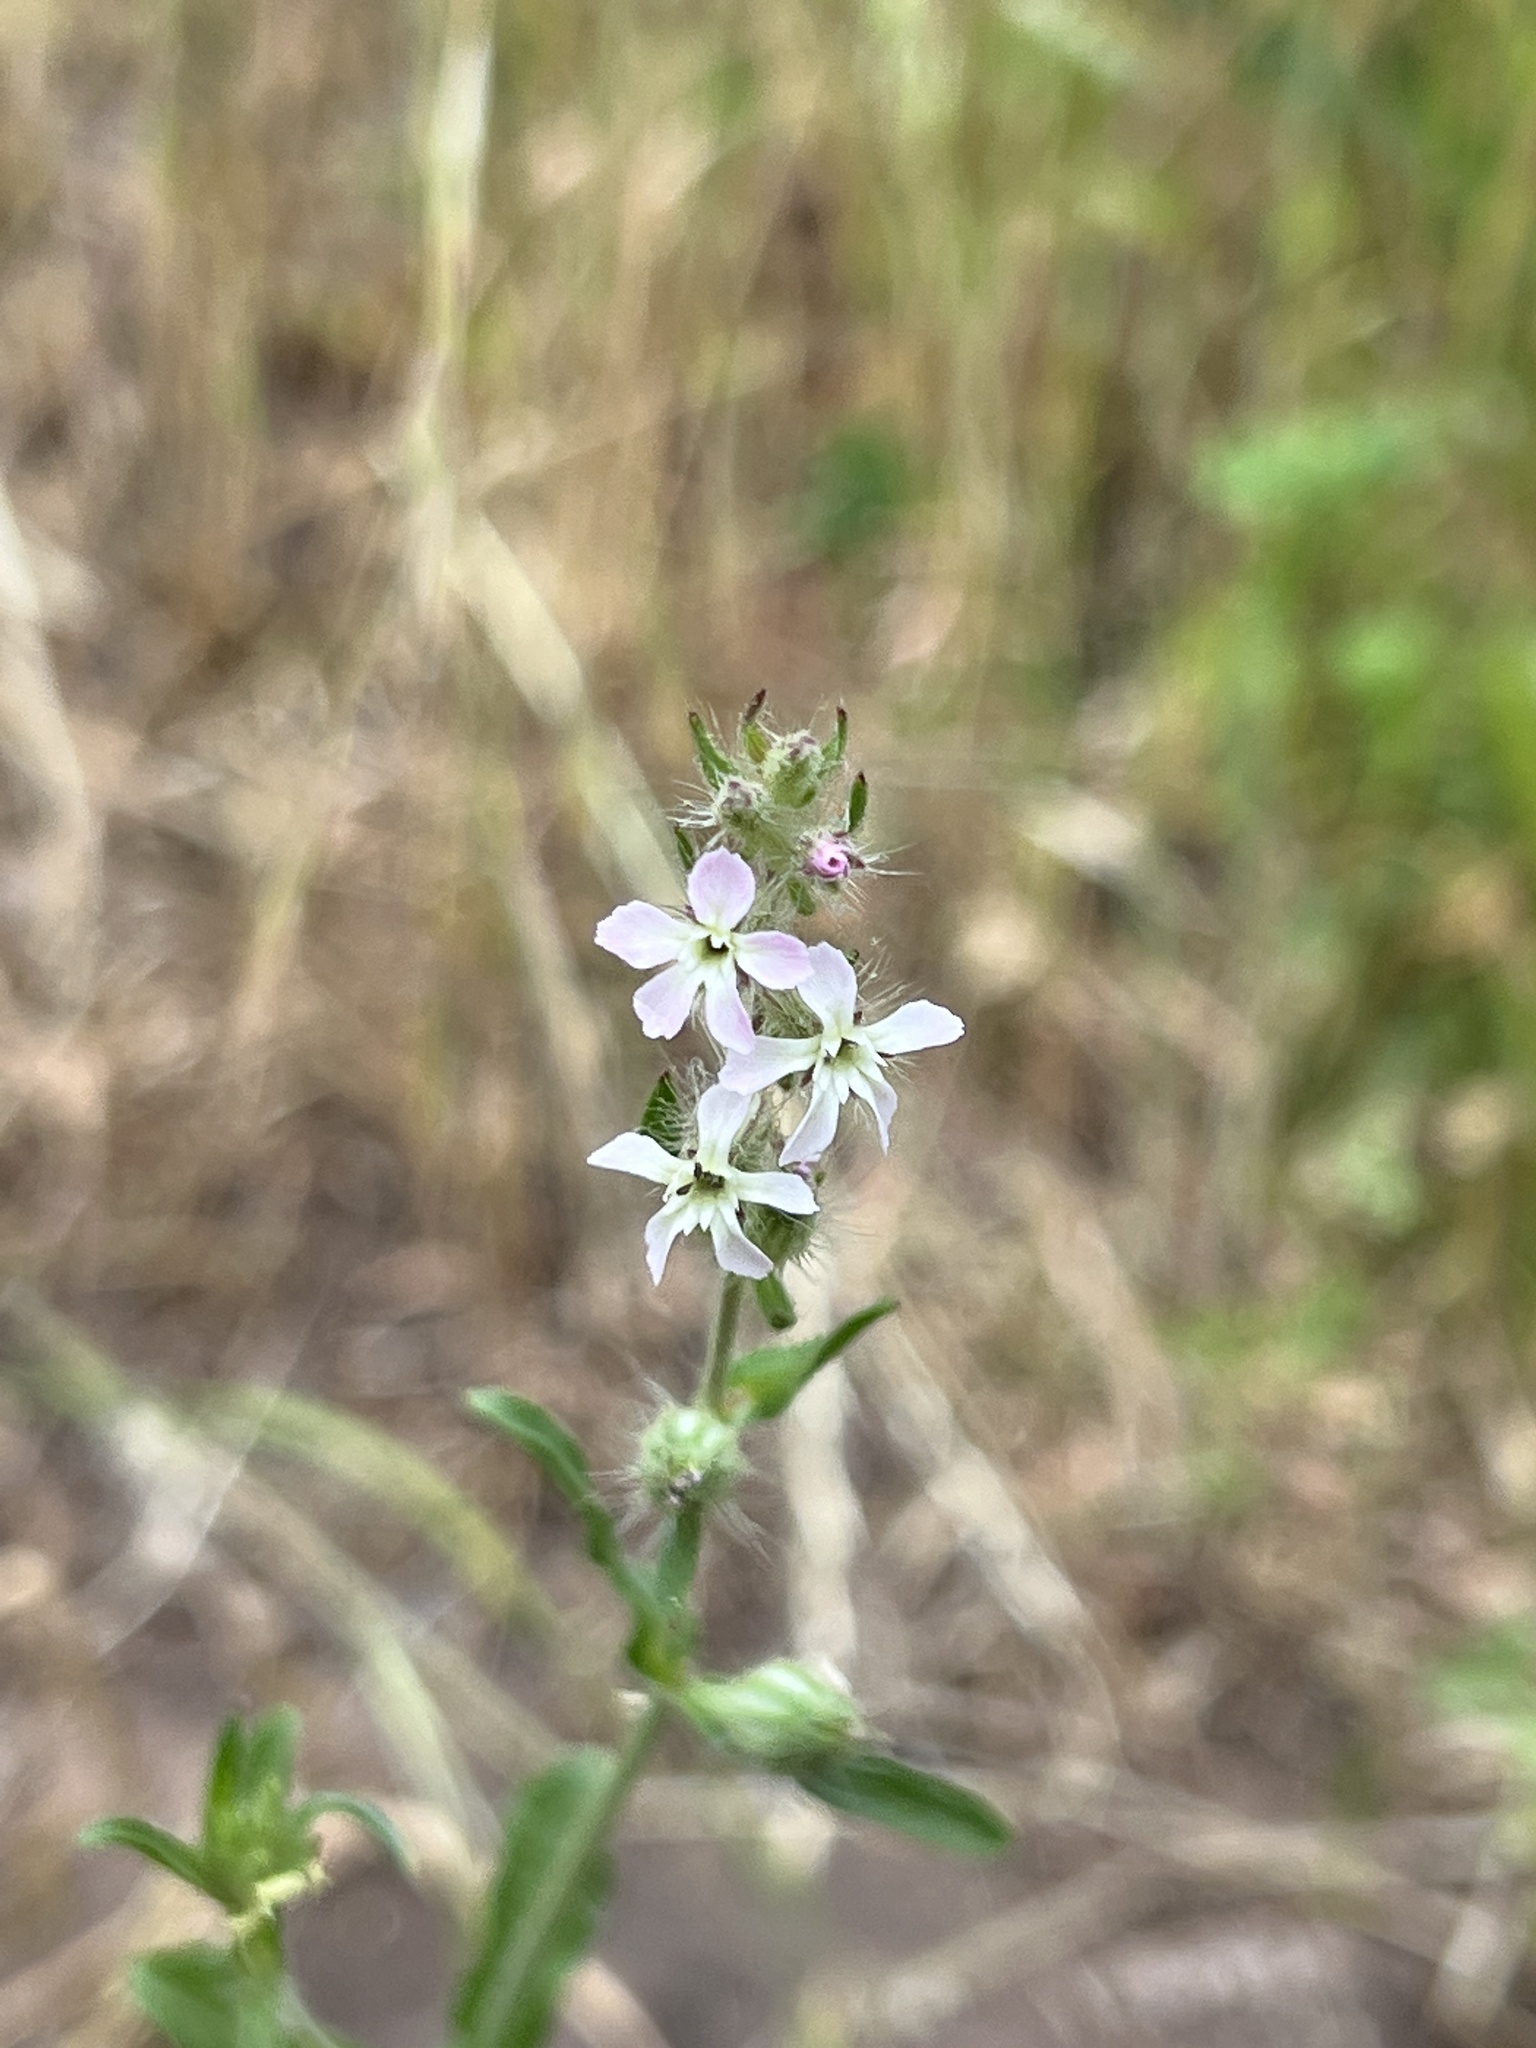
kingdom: Plantae
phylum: Tracheophyta
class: Magnoliopsida
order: Caryophyllales
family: Caryophyllaceae
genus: Silene
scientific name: Silene gallica
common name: Small-flowered catchfly
